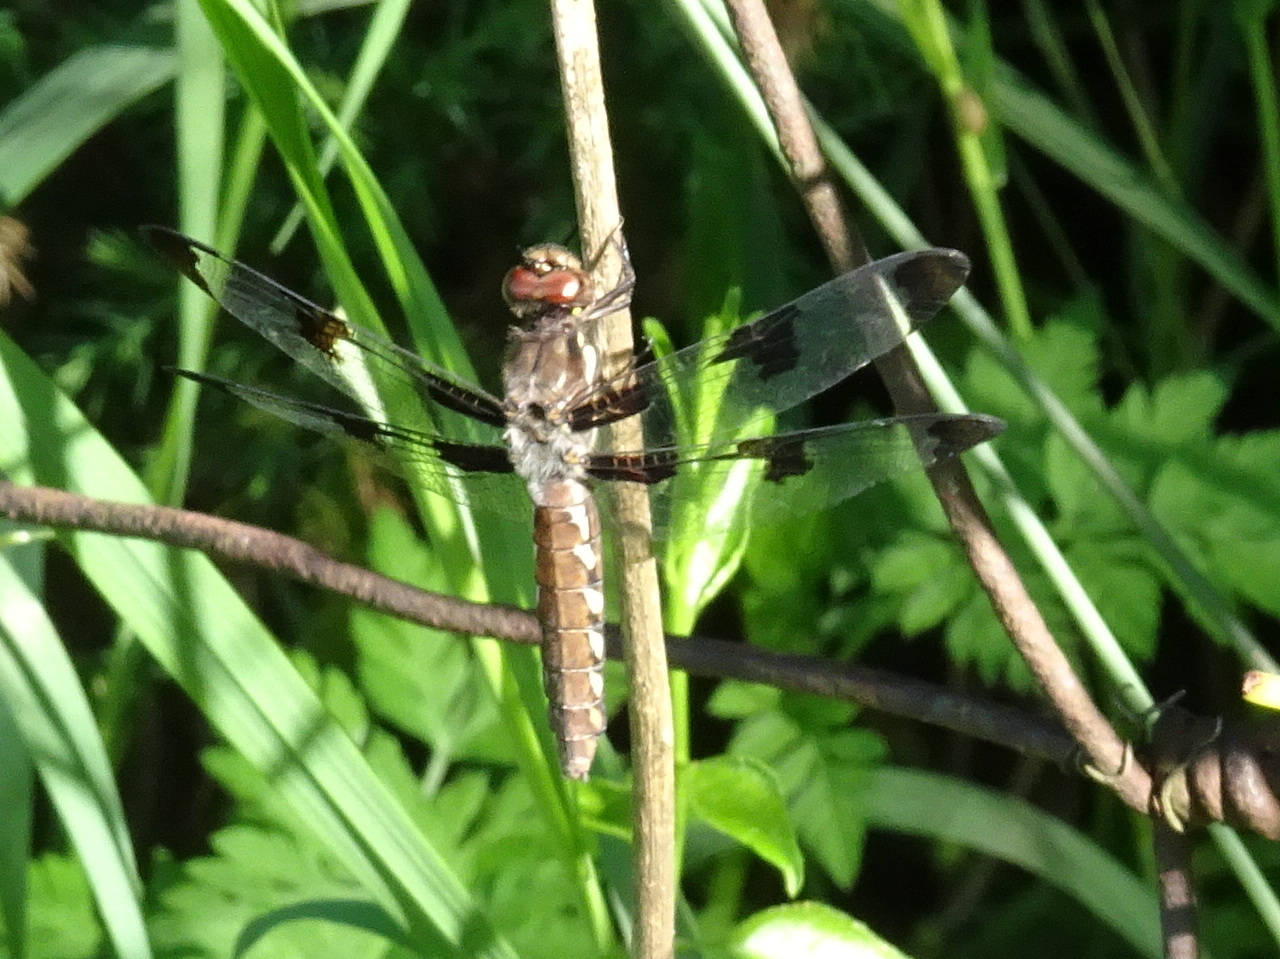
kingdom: Animalia
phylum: Arthropoda
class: Insecta
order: Odonata
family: Libellulidae
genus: Plathemis
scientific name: Plathemis lydia
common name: Common whitetail
